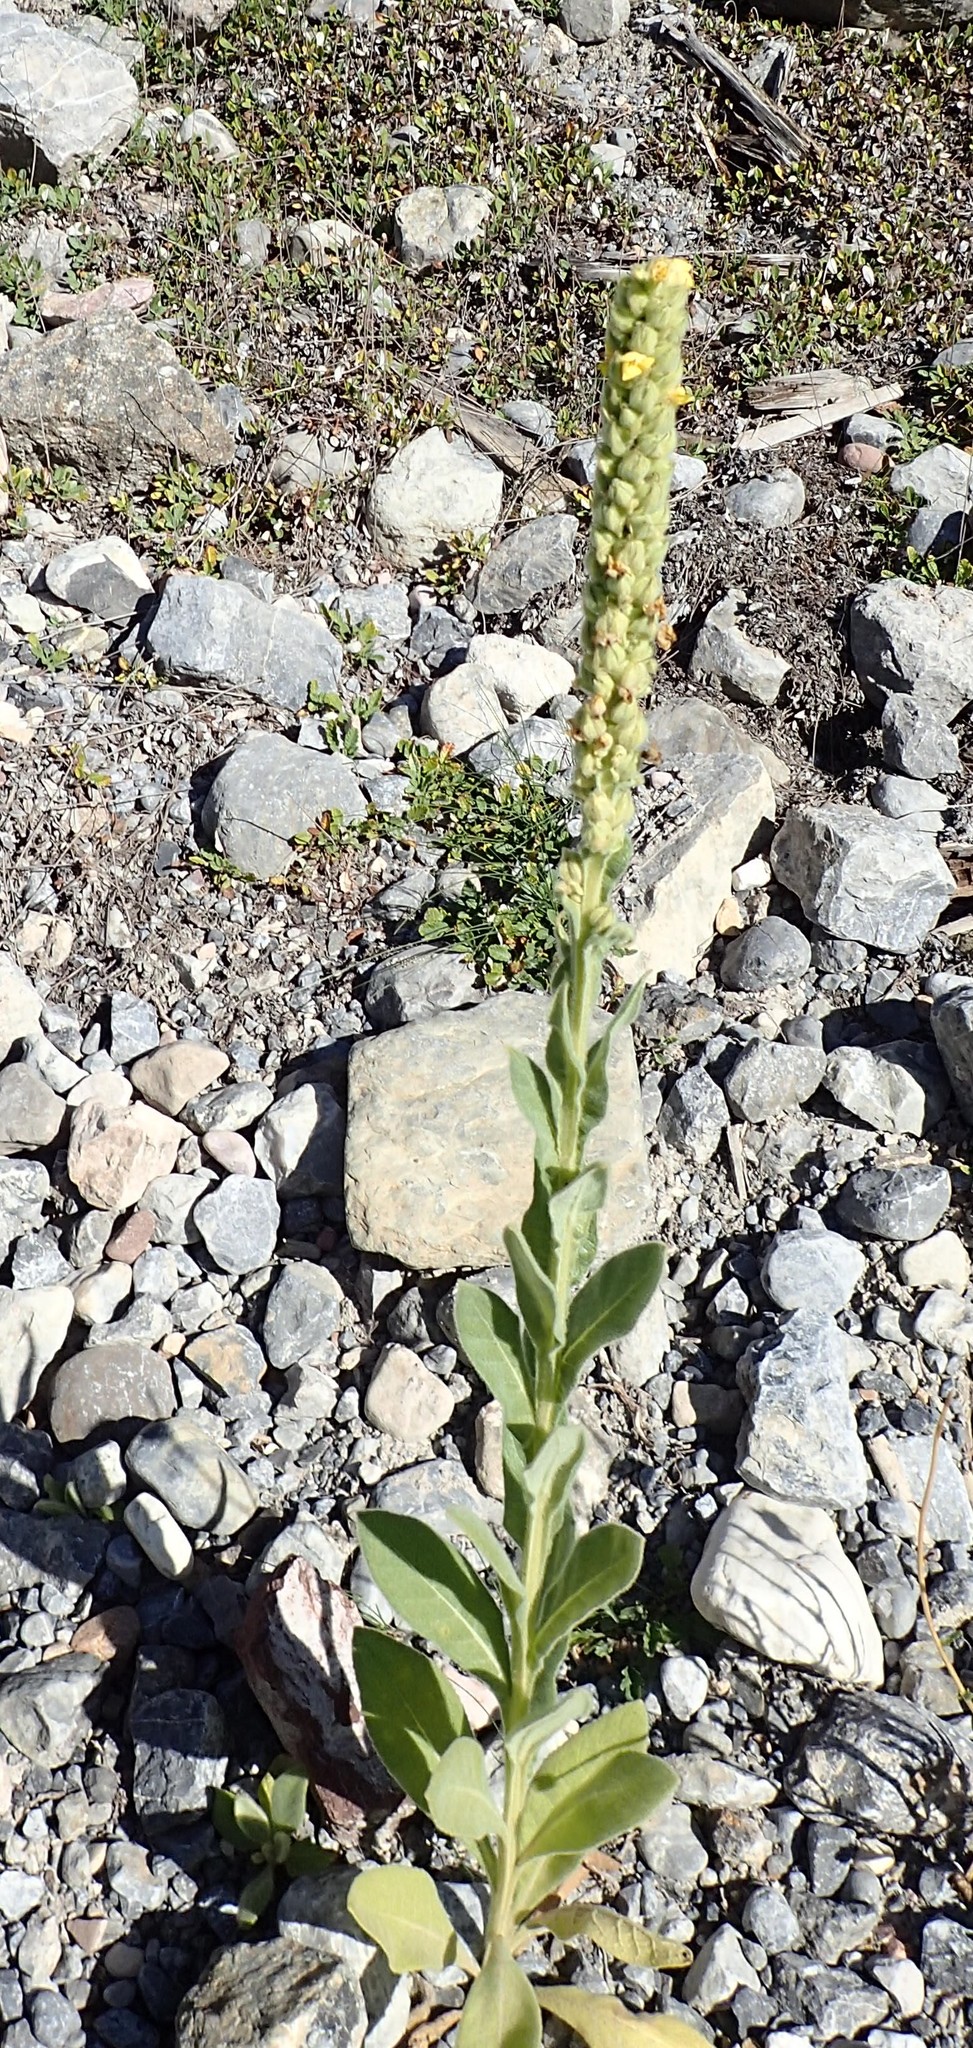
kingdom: Plantae
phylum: Tracheophyta
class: Magnoliopsida
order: Lamiales
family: Scrophulariaceae
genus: Verbascum
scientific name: Verbascum thapsus
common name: Common mullein
